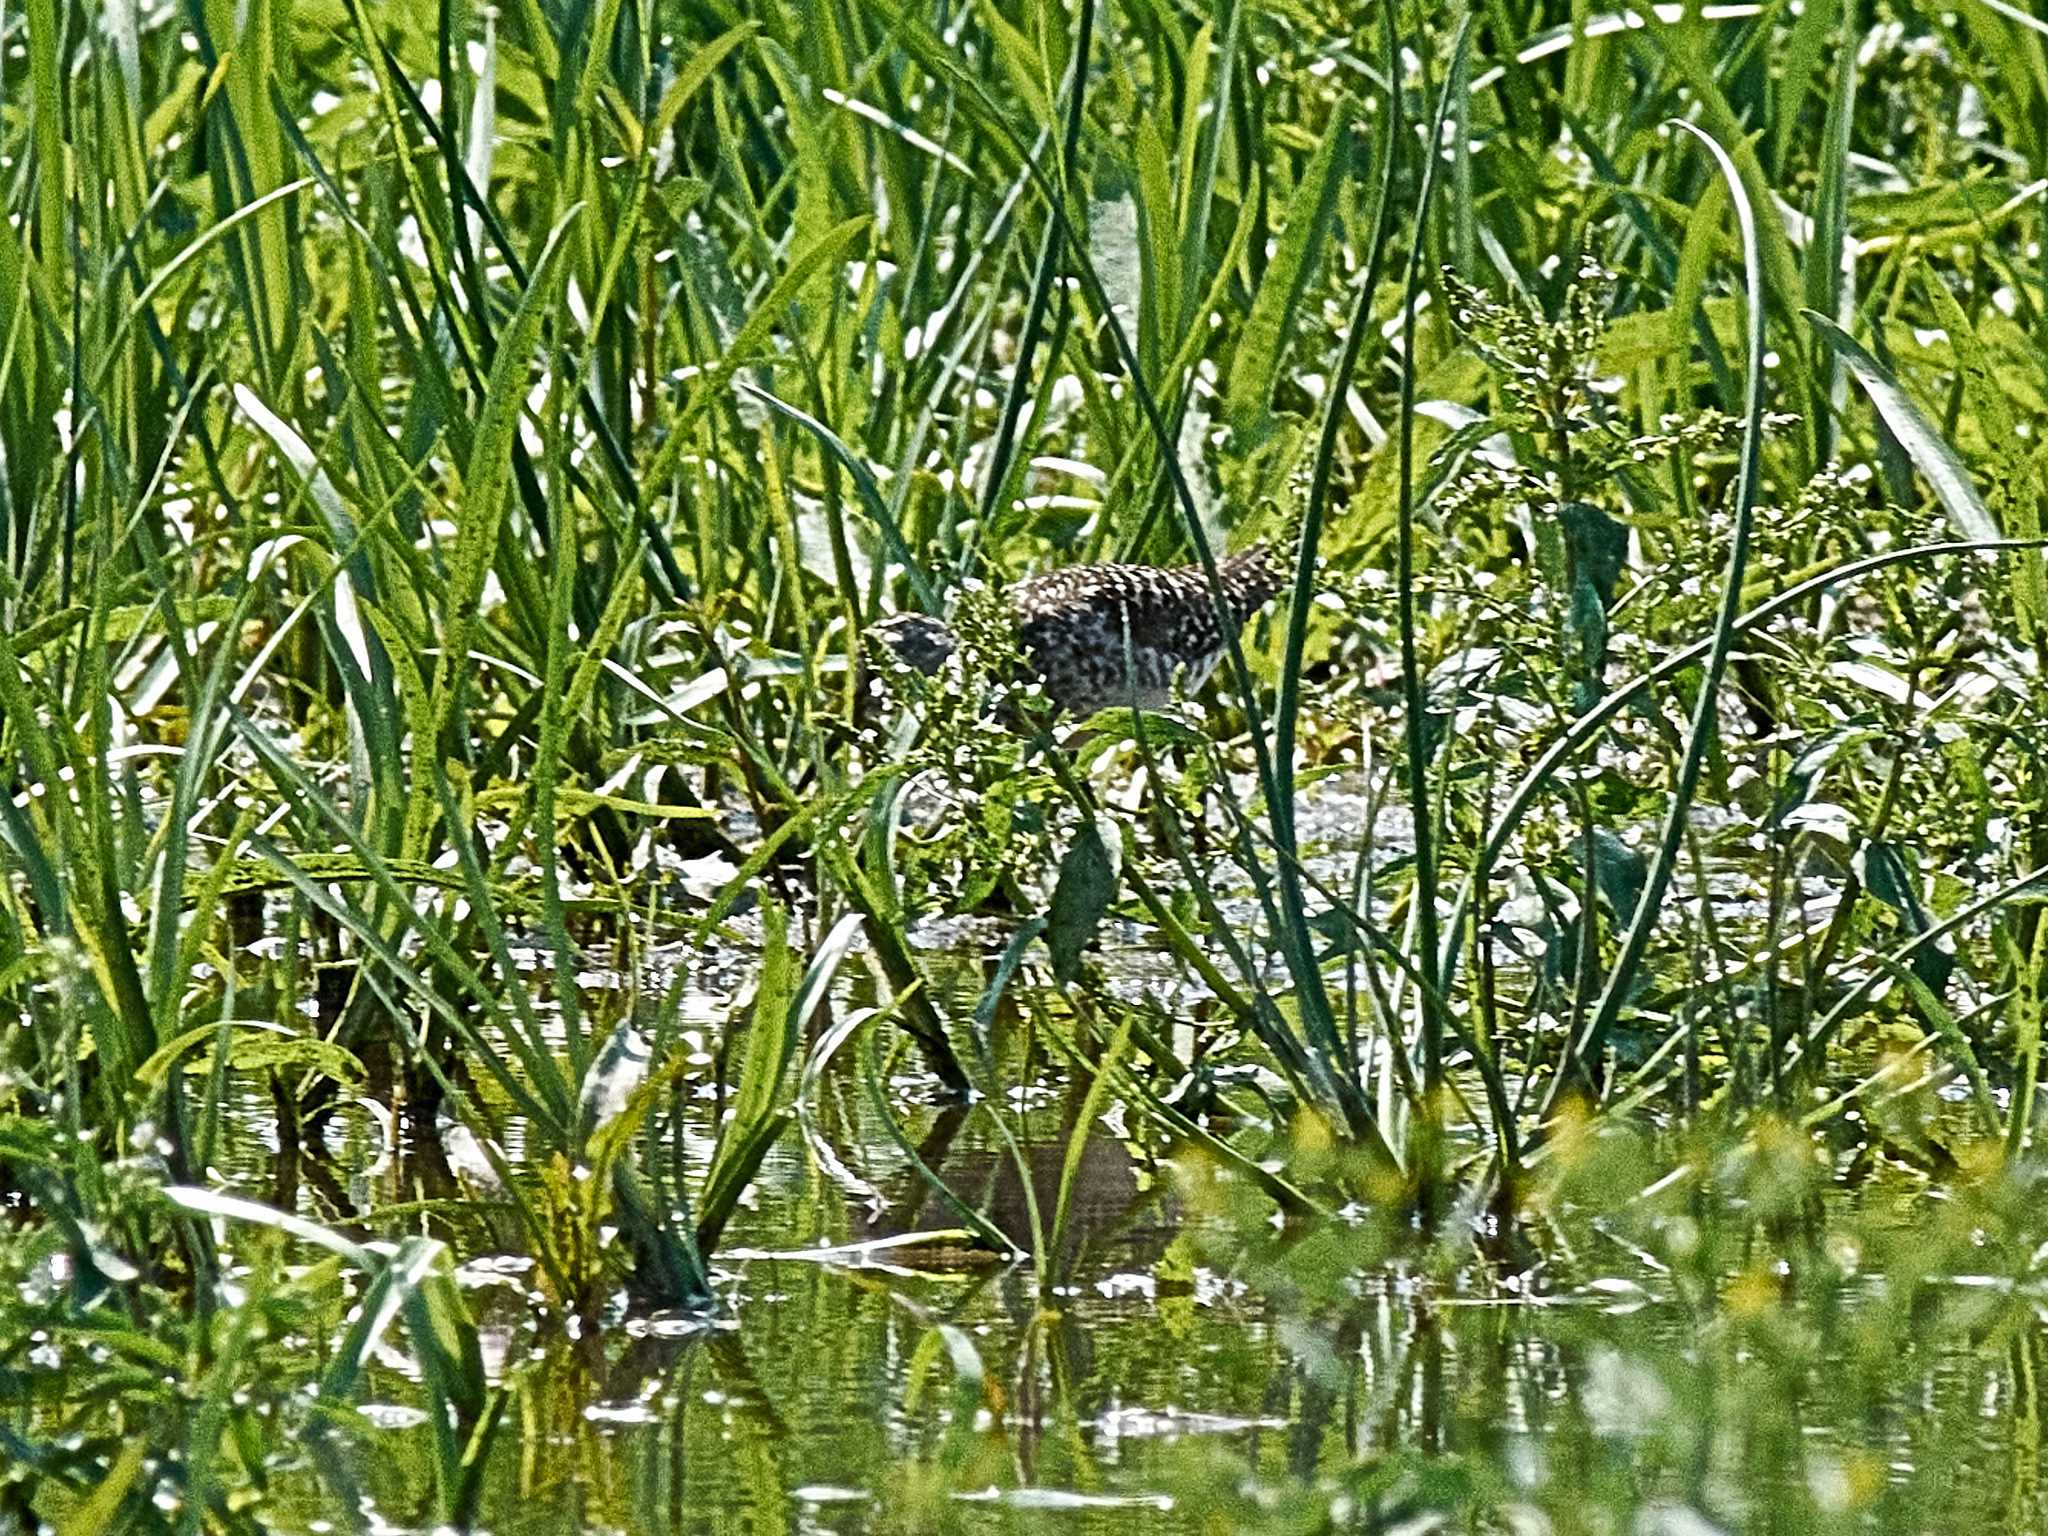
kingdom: Animalia
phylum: Chordata
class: Aves
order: Charadriiformes
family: Scolopacidae
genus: Tringa
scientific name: Tringa glareola
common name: Wood sandpiper
